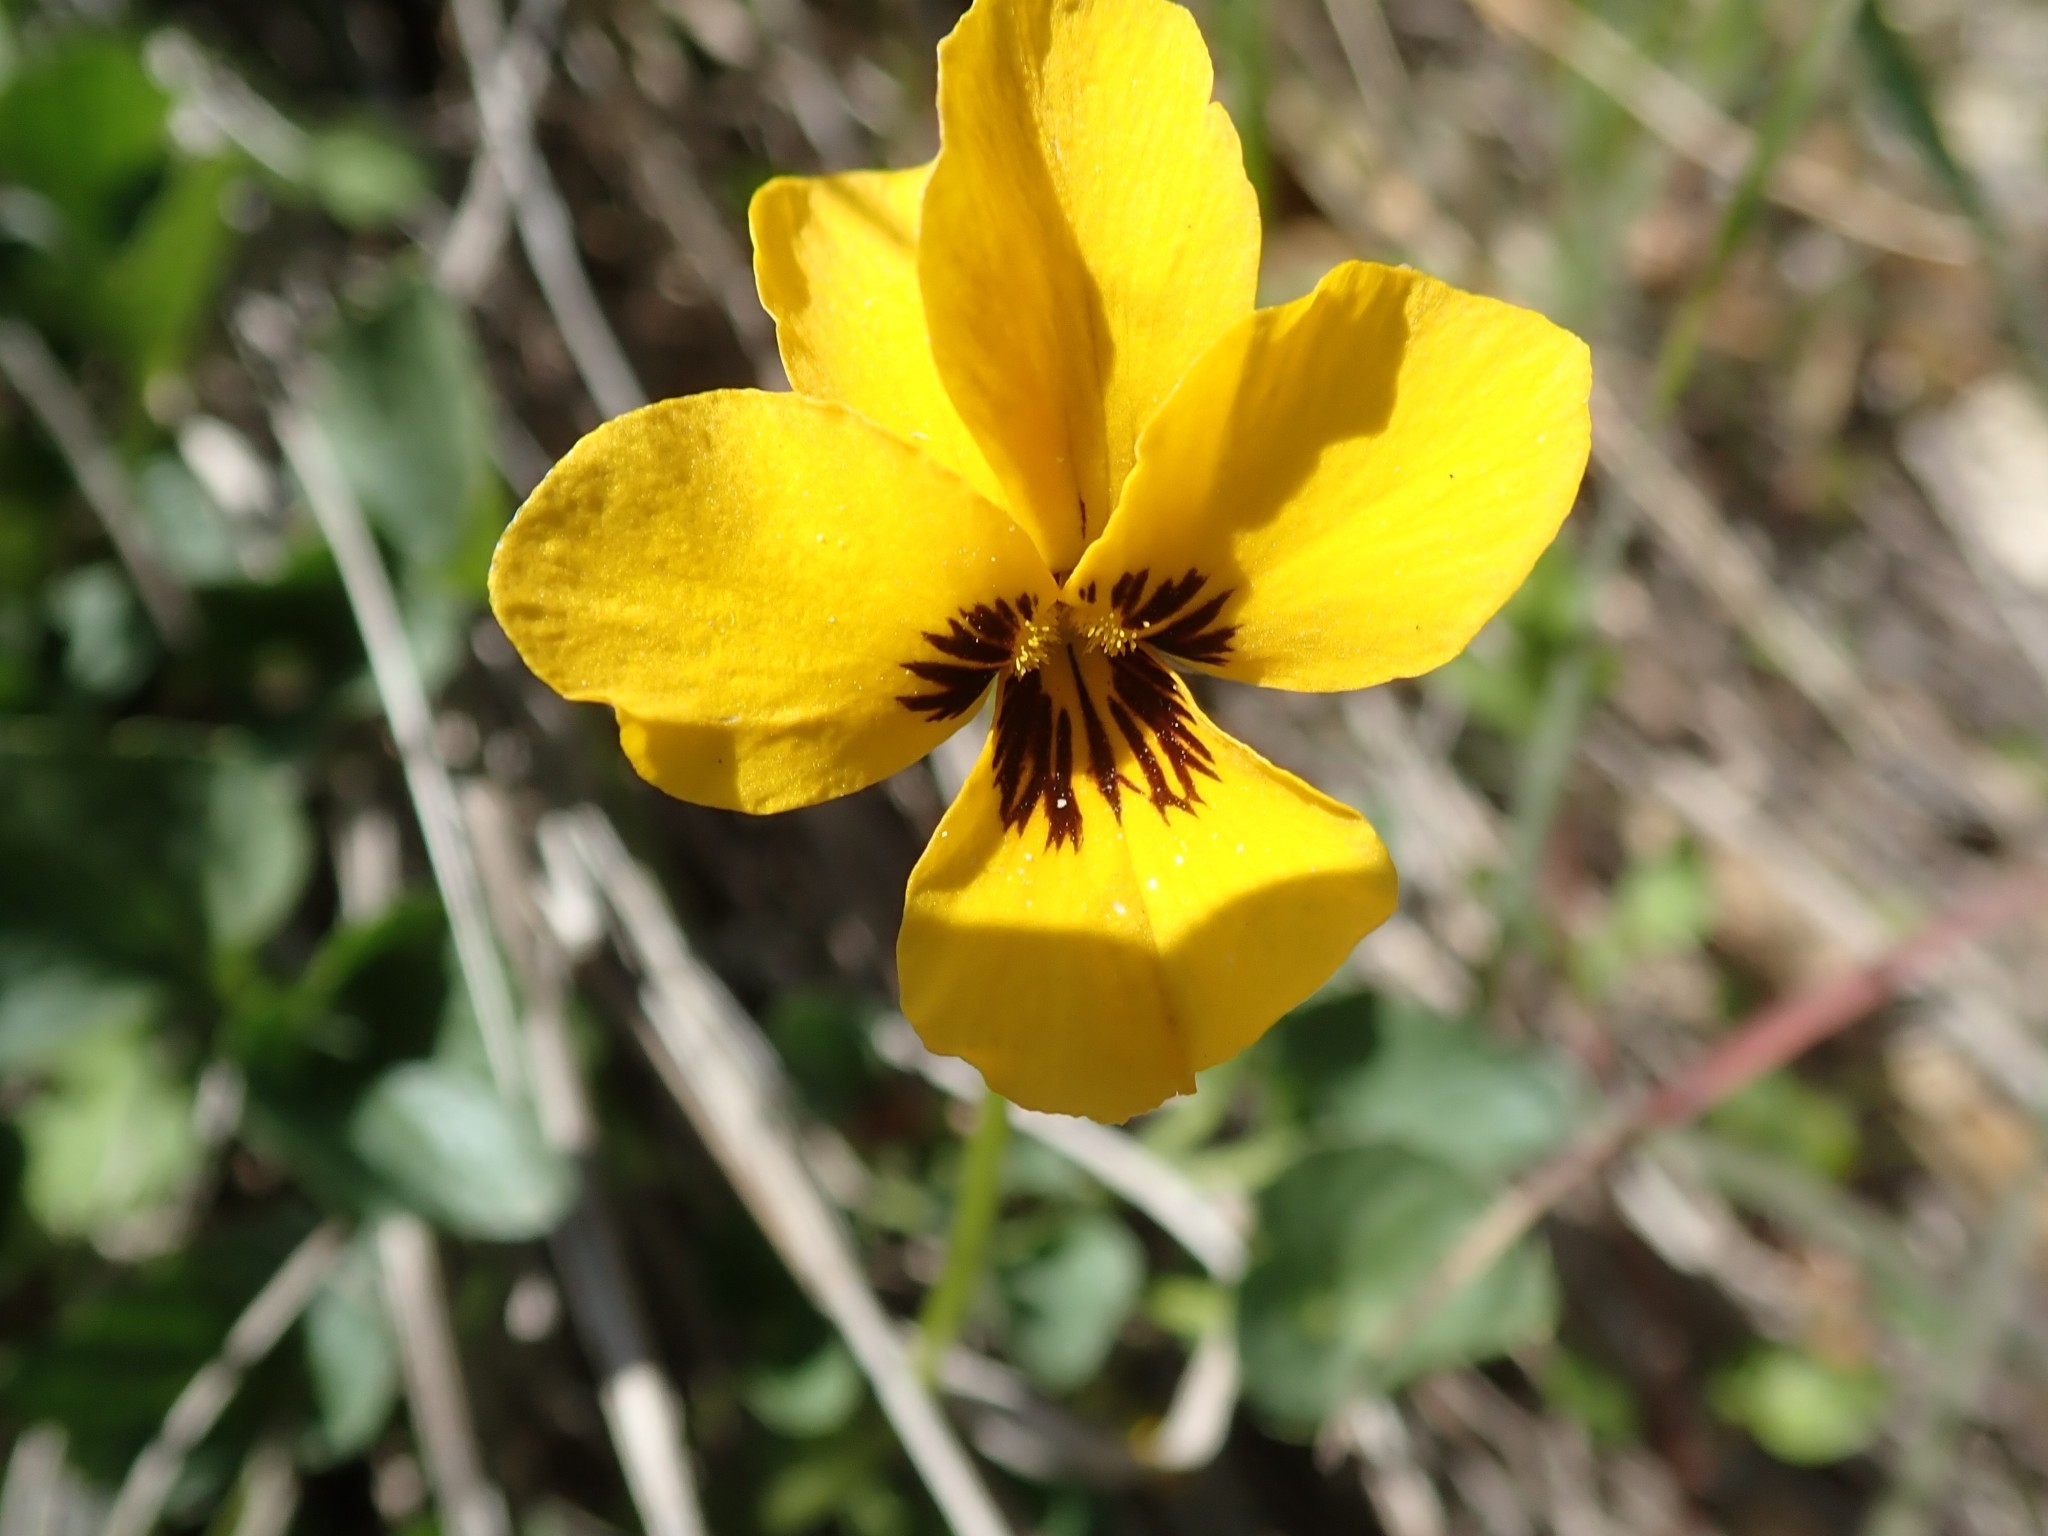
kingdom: Plantae
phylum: Tracheophyta
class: Magnoliopsida
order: Malpighiales
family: Violaceae
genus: Viola
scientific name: Viola pedunculata
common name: California golden violet
